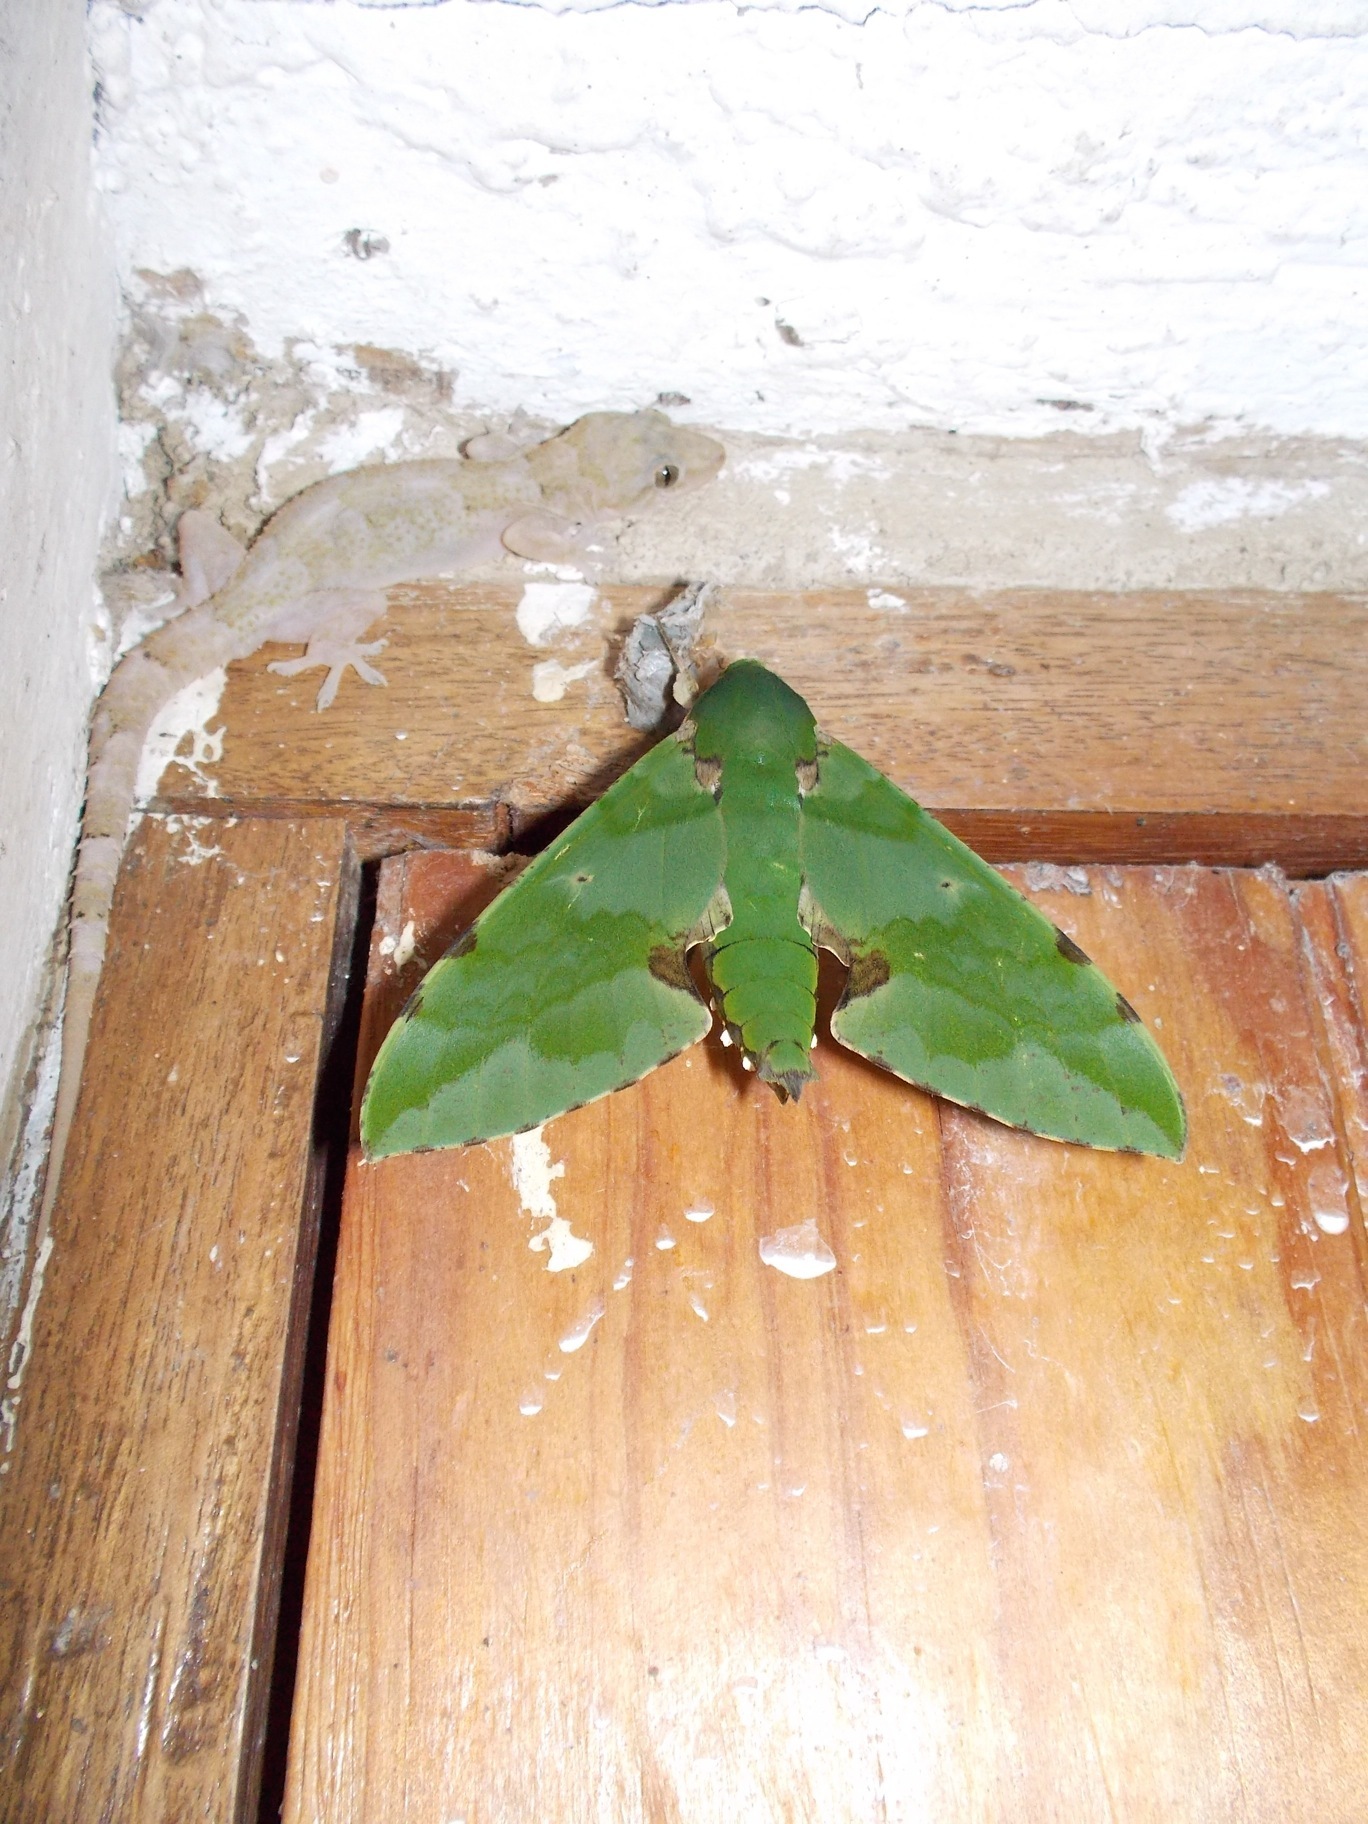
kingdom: Animalia
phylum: Chordata
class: Squamata
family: Gekkonidae
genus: Hemidactylus
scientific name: Hemidactylus mabouia
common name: House gecko
